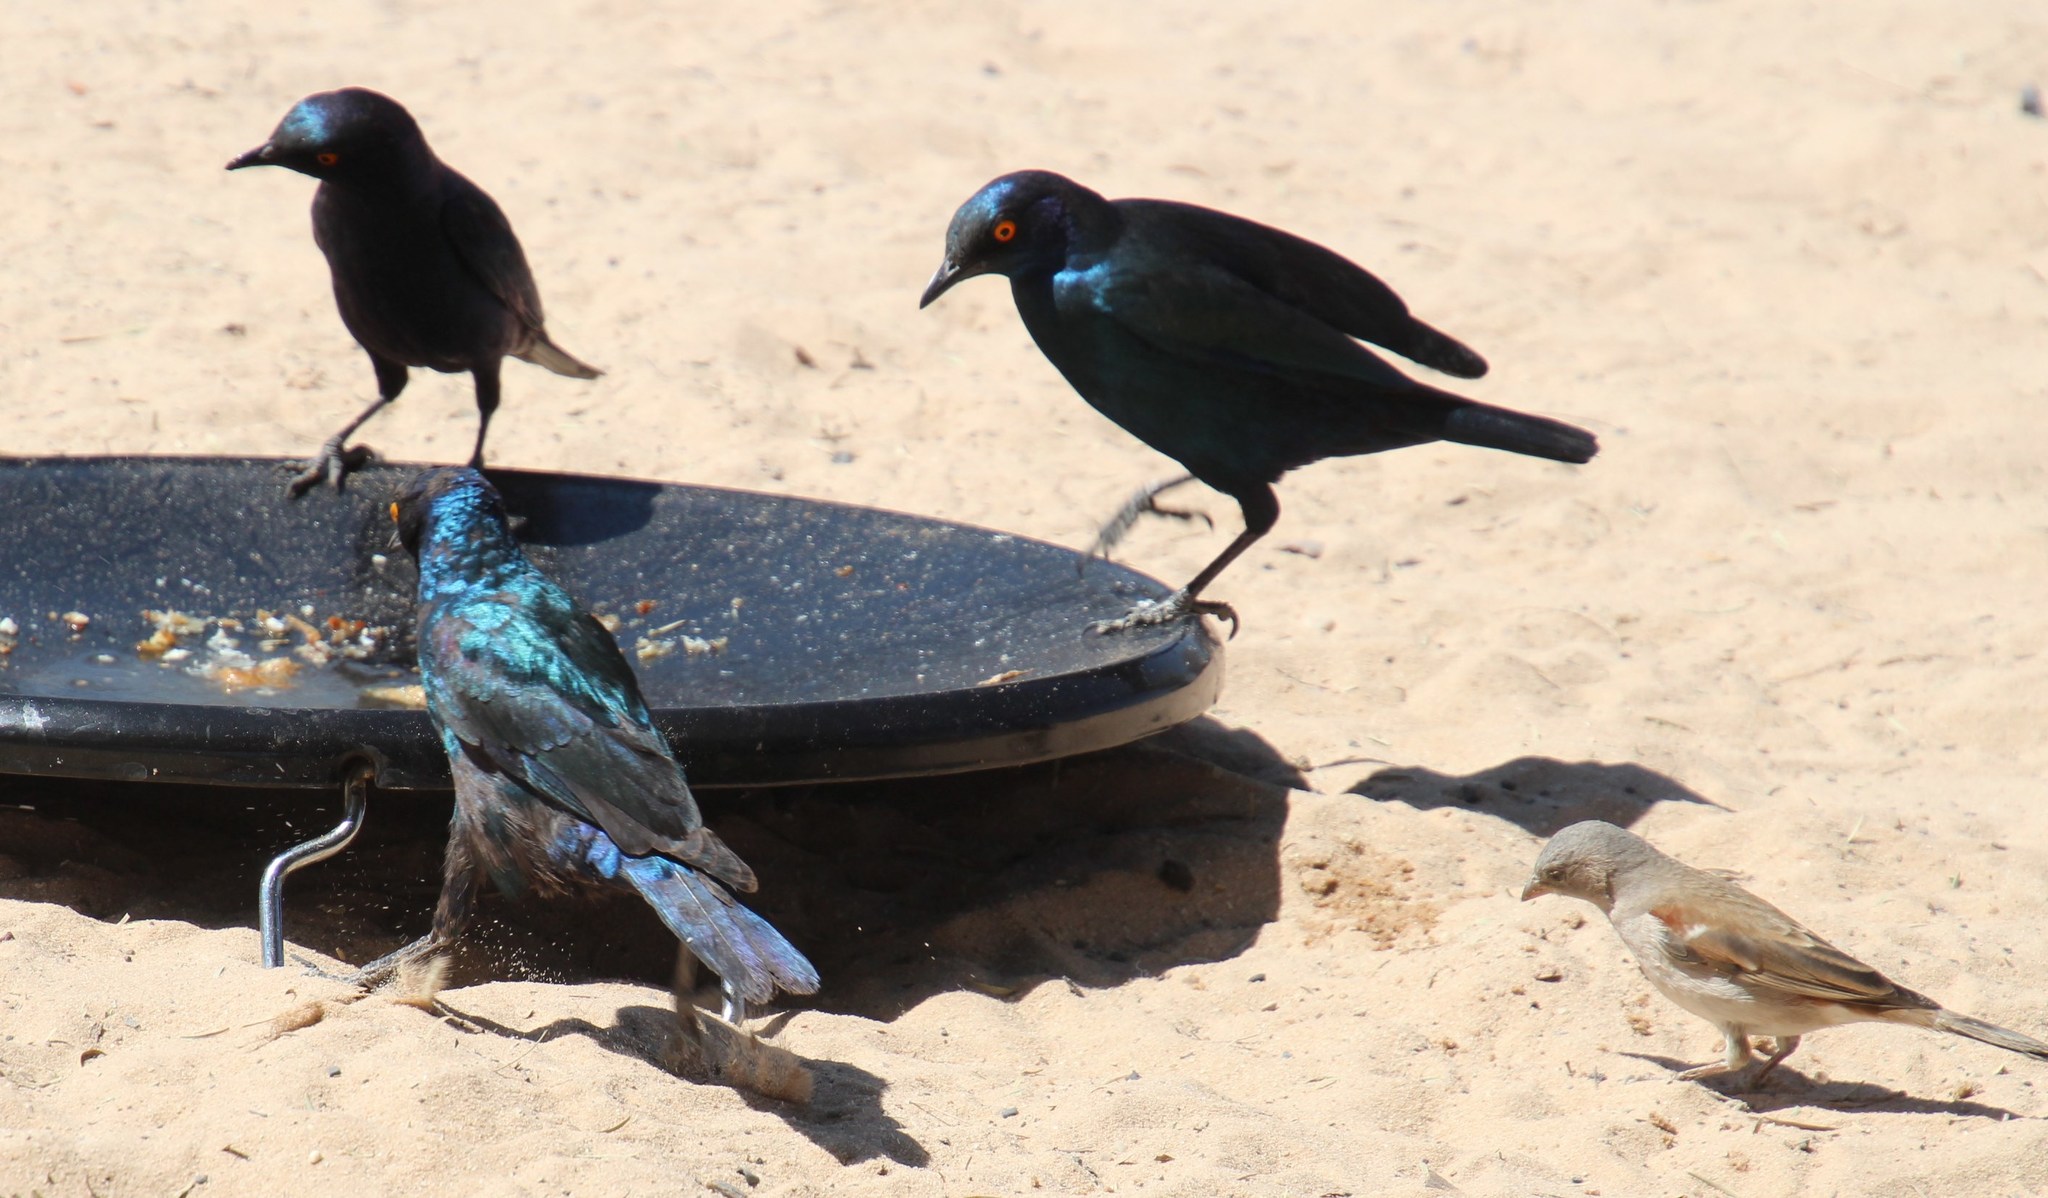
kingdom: Animalia
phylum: Chordata
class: Aves
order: Passeriformes
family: Passeridae
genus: Passer
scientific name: Passer diffusus
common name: Southern grey-headed sparrow
